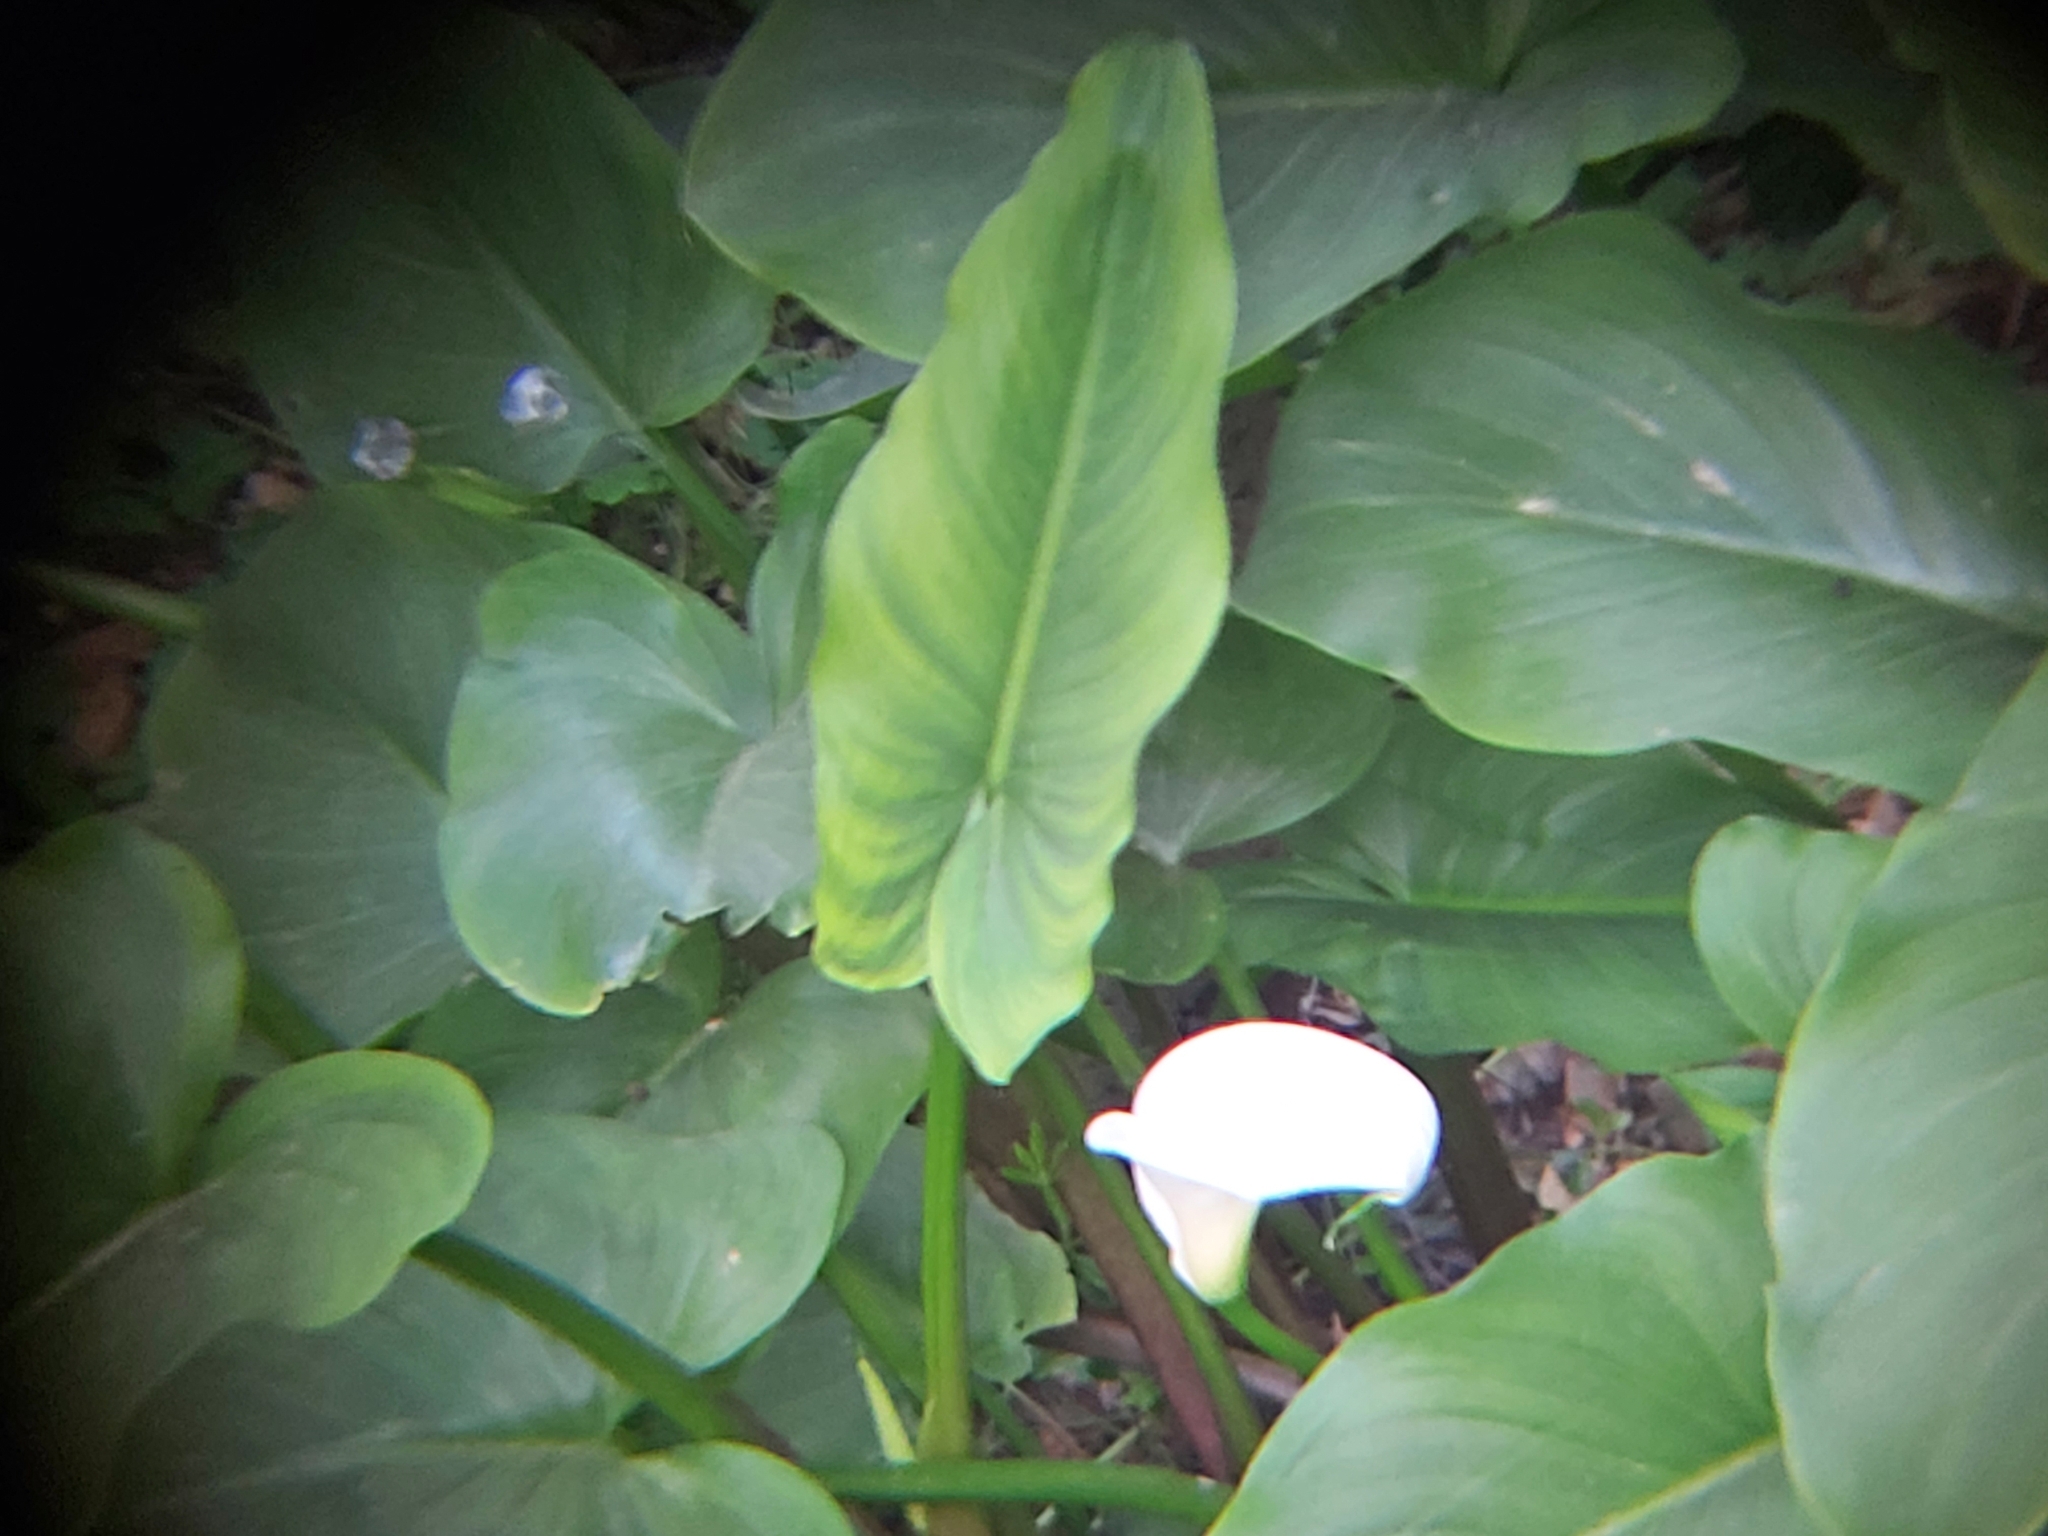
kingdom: Plantae
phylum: Tracheophyta
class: Liliopsida
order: Alismatales
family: Araceae
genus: Zantedeschia
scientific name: Zantedeschia aethiopica
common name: Altar-lily
